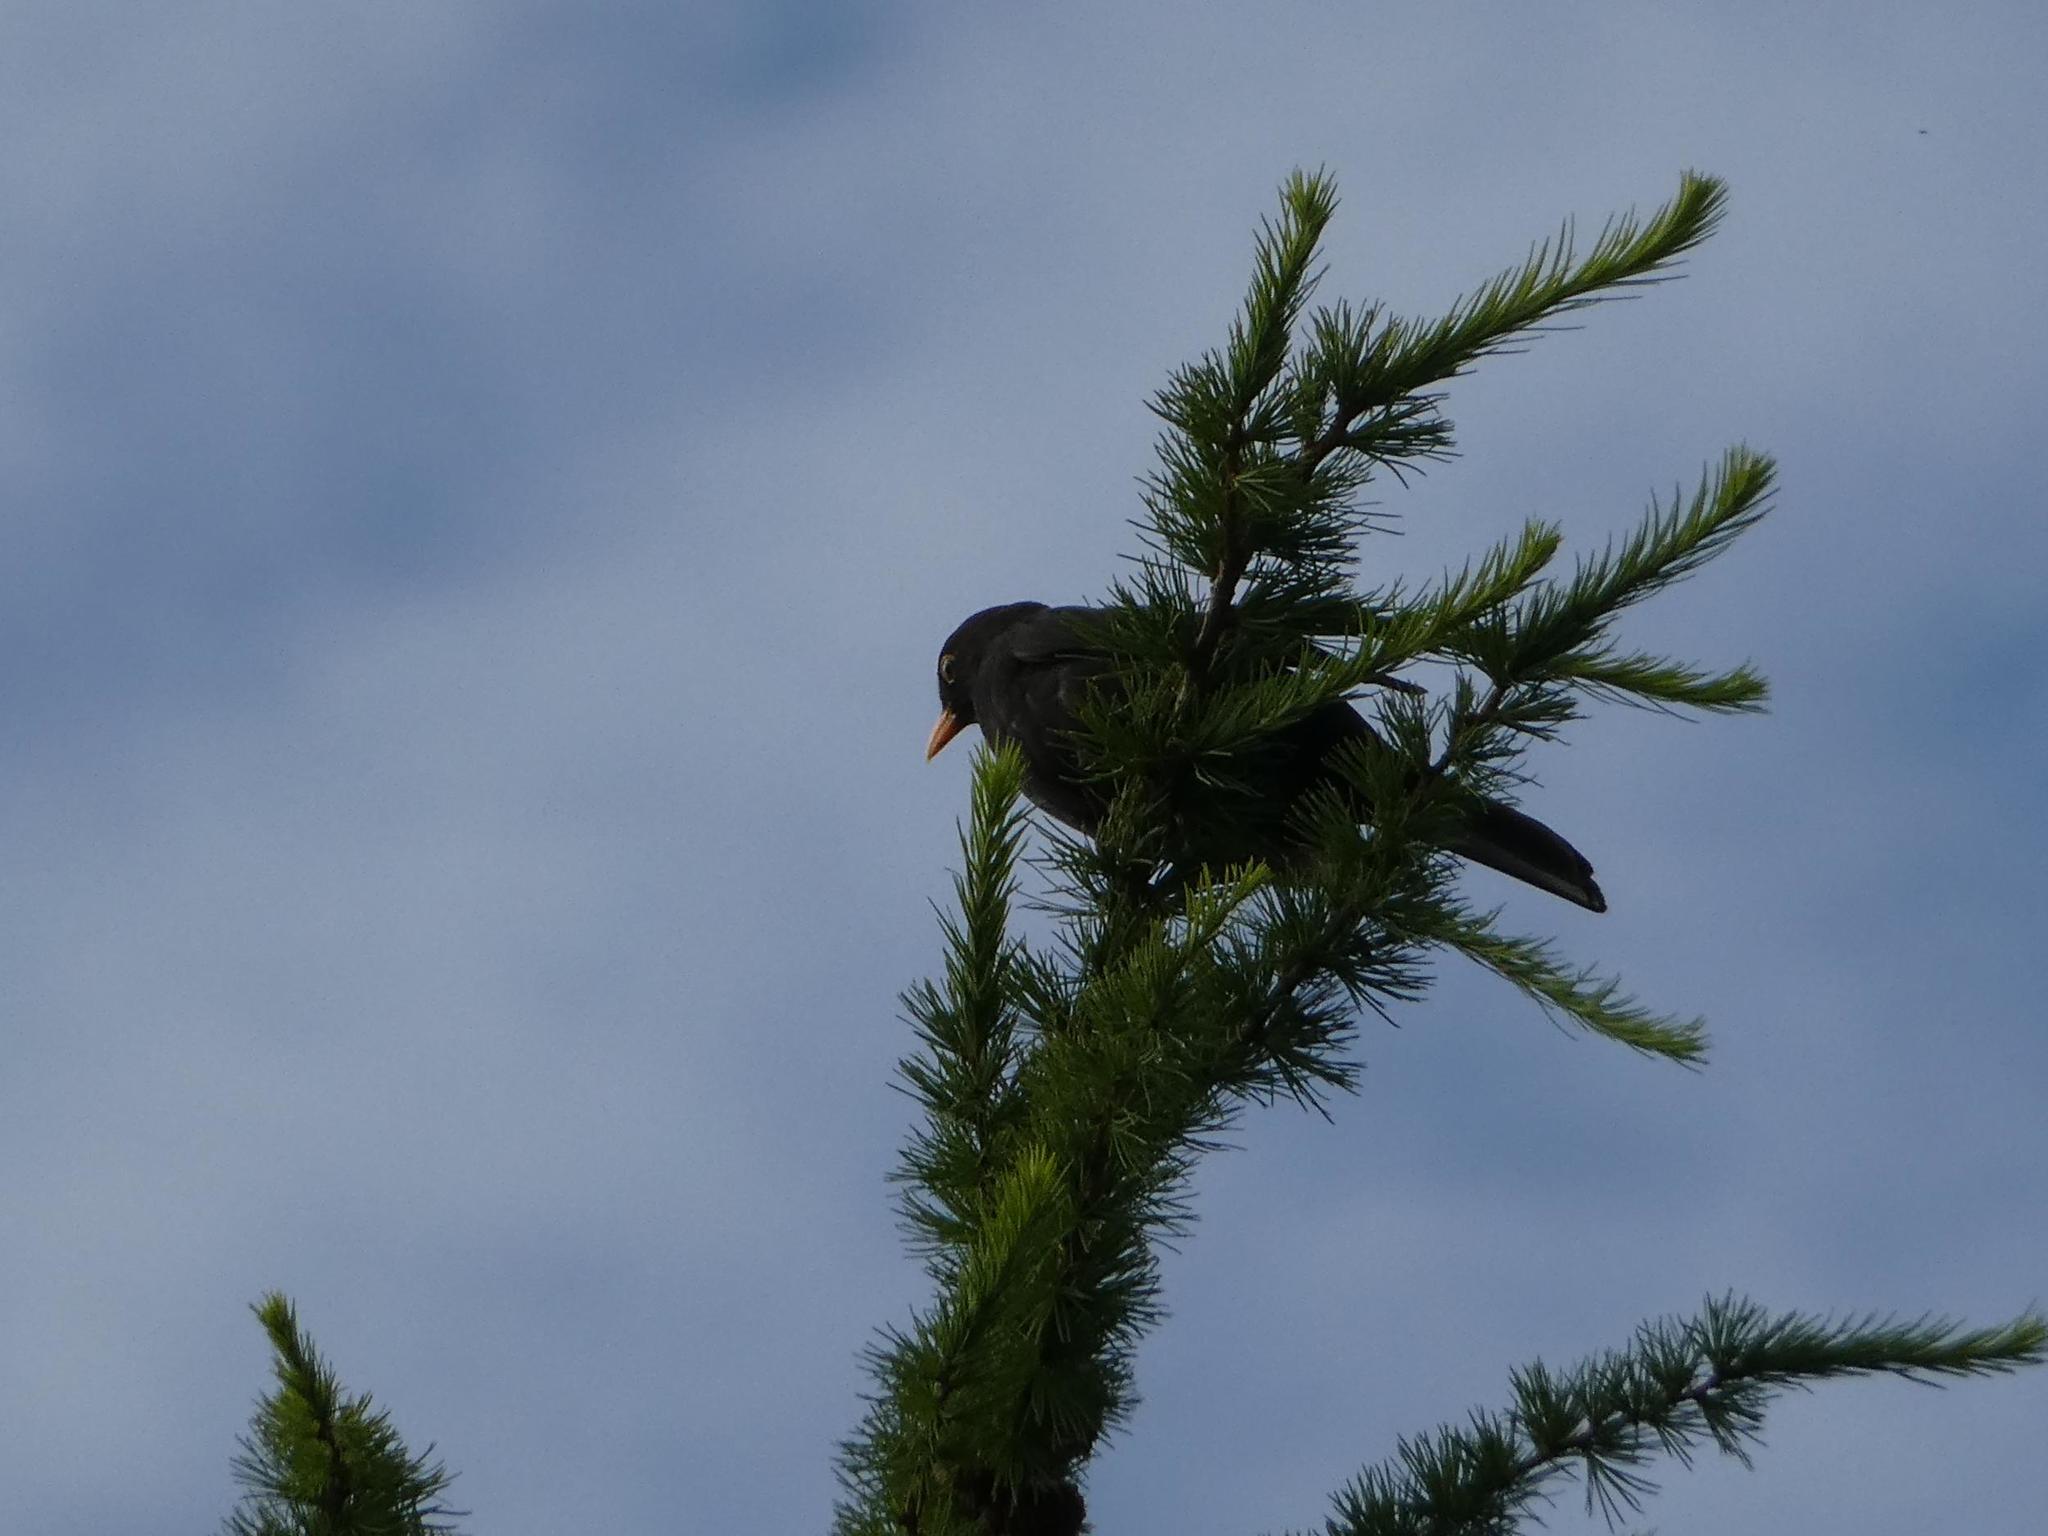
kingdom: Animalia
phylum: Chordata
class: Aves
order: Passeriformes
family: Turdidae
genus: Turdus
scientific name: Turdus merula
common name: Common blackbird
